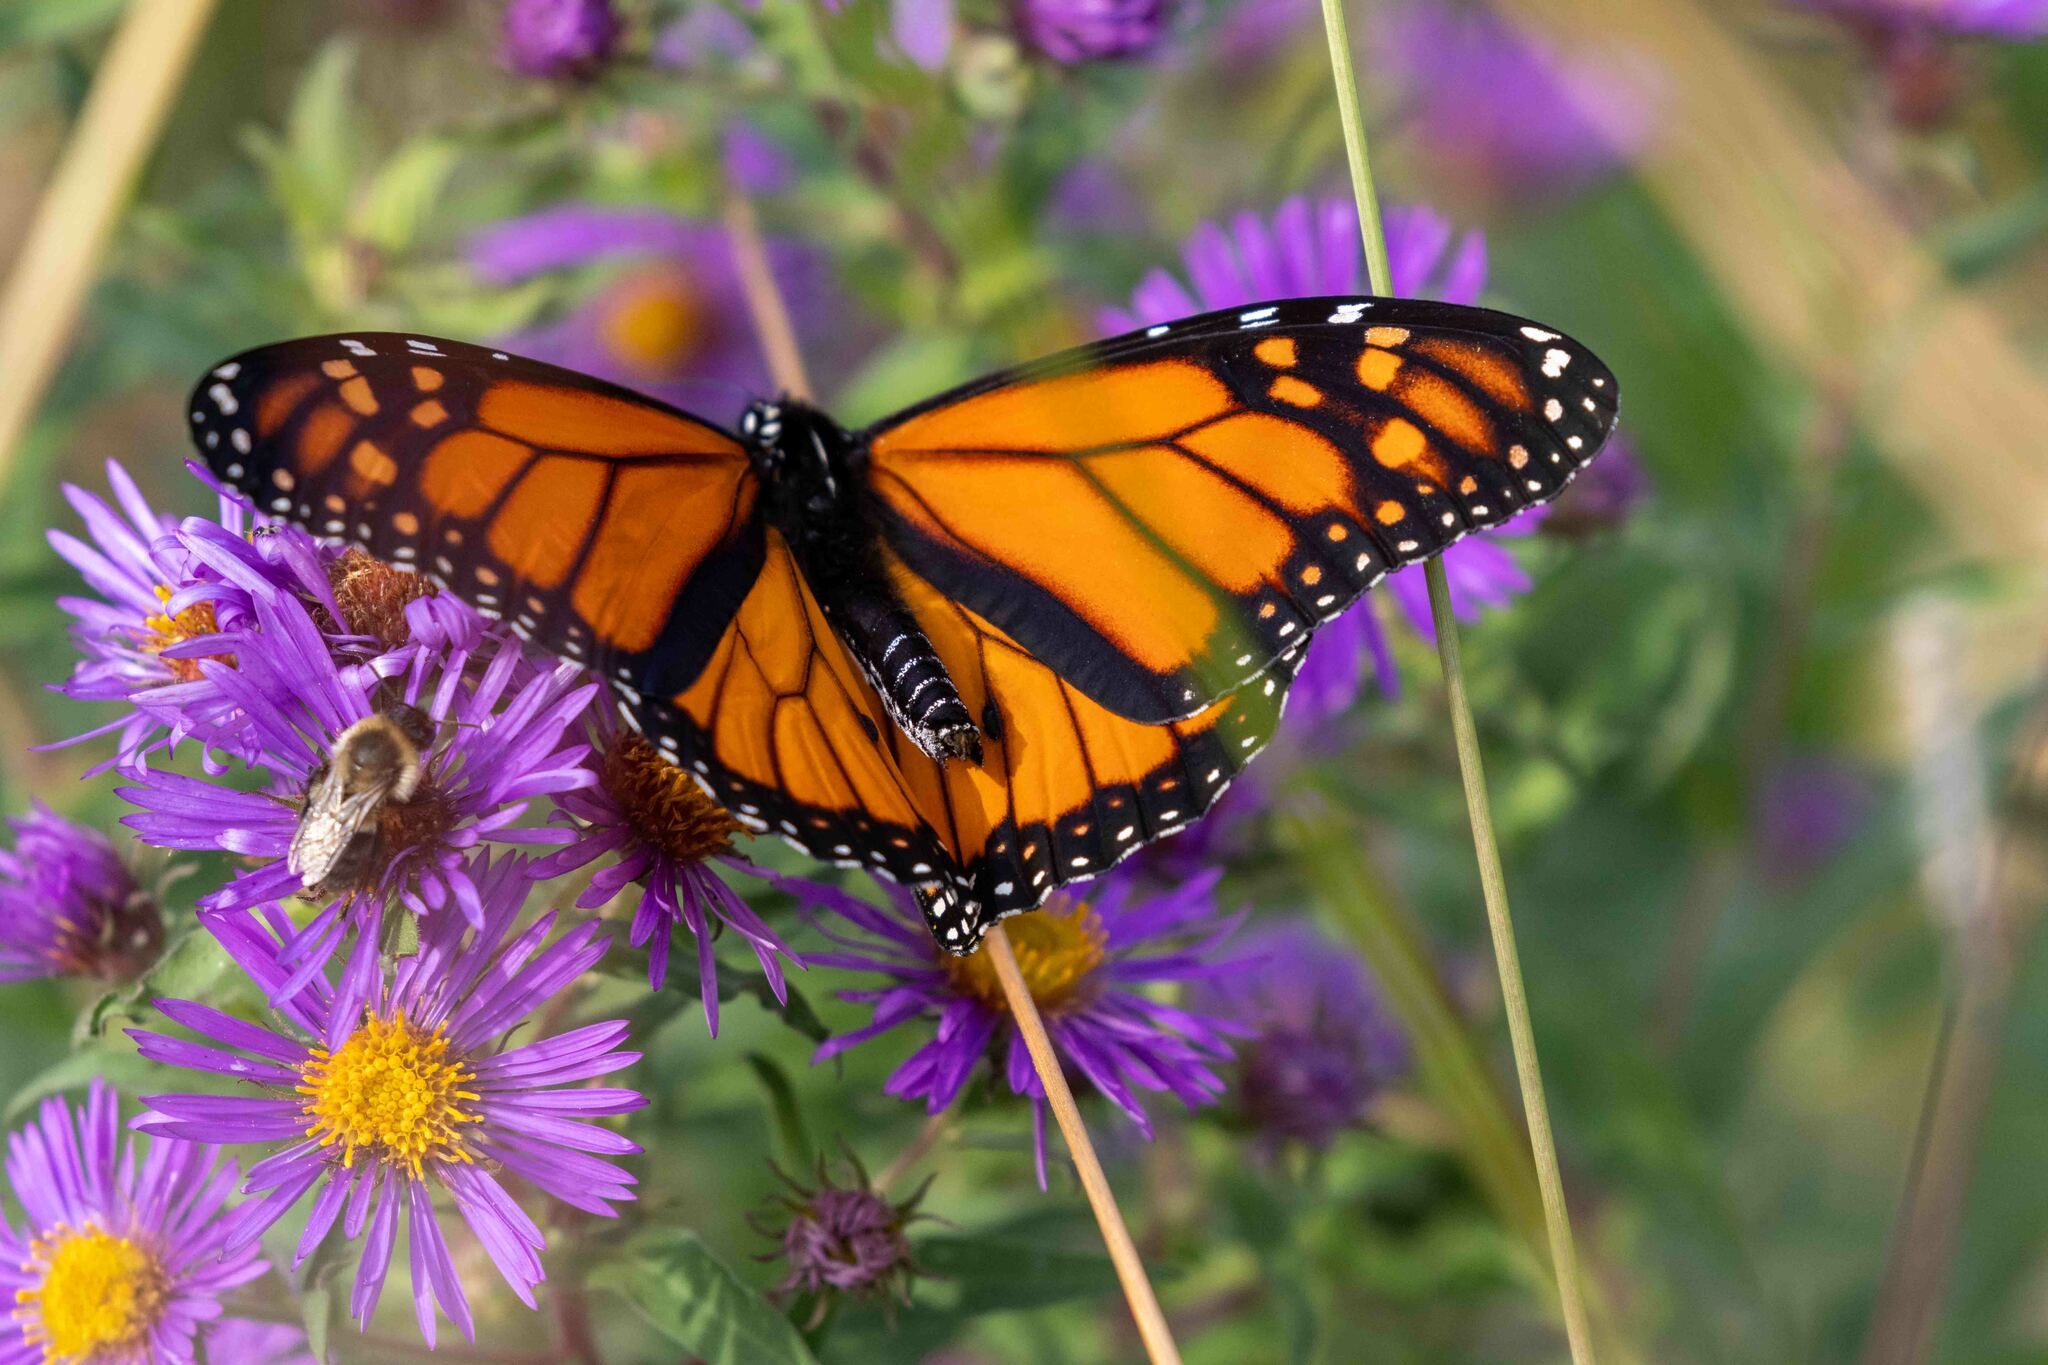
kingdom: Animalia
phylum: Arthropoda
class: Insecta
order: Lepidoptera
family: Nymphalidae
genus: Danaus
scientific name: Danaus plexippus
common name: Monarch
